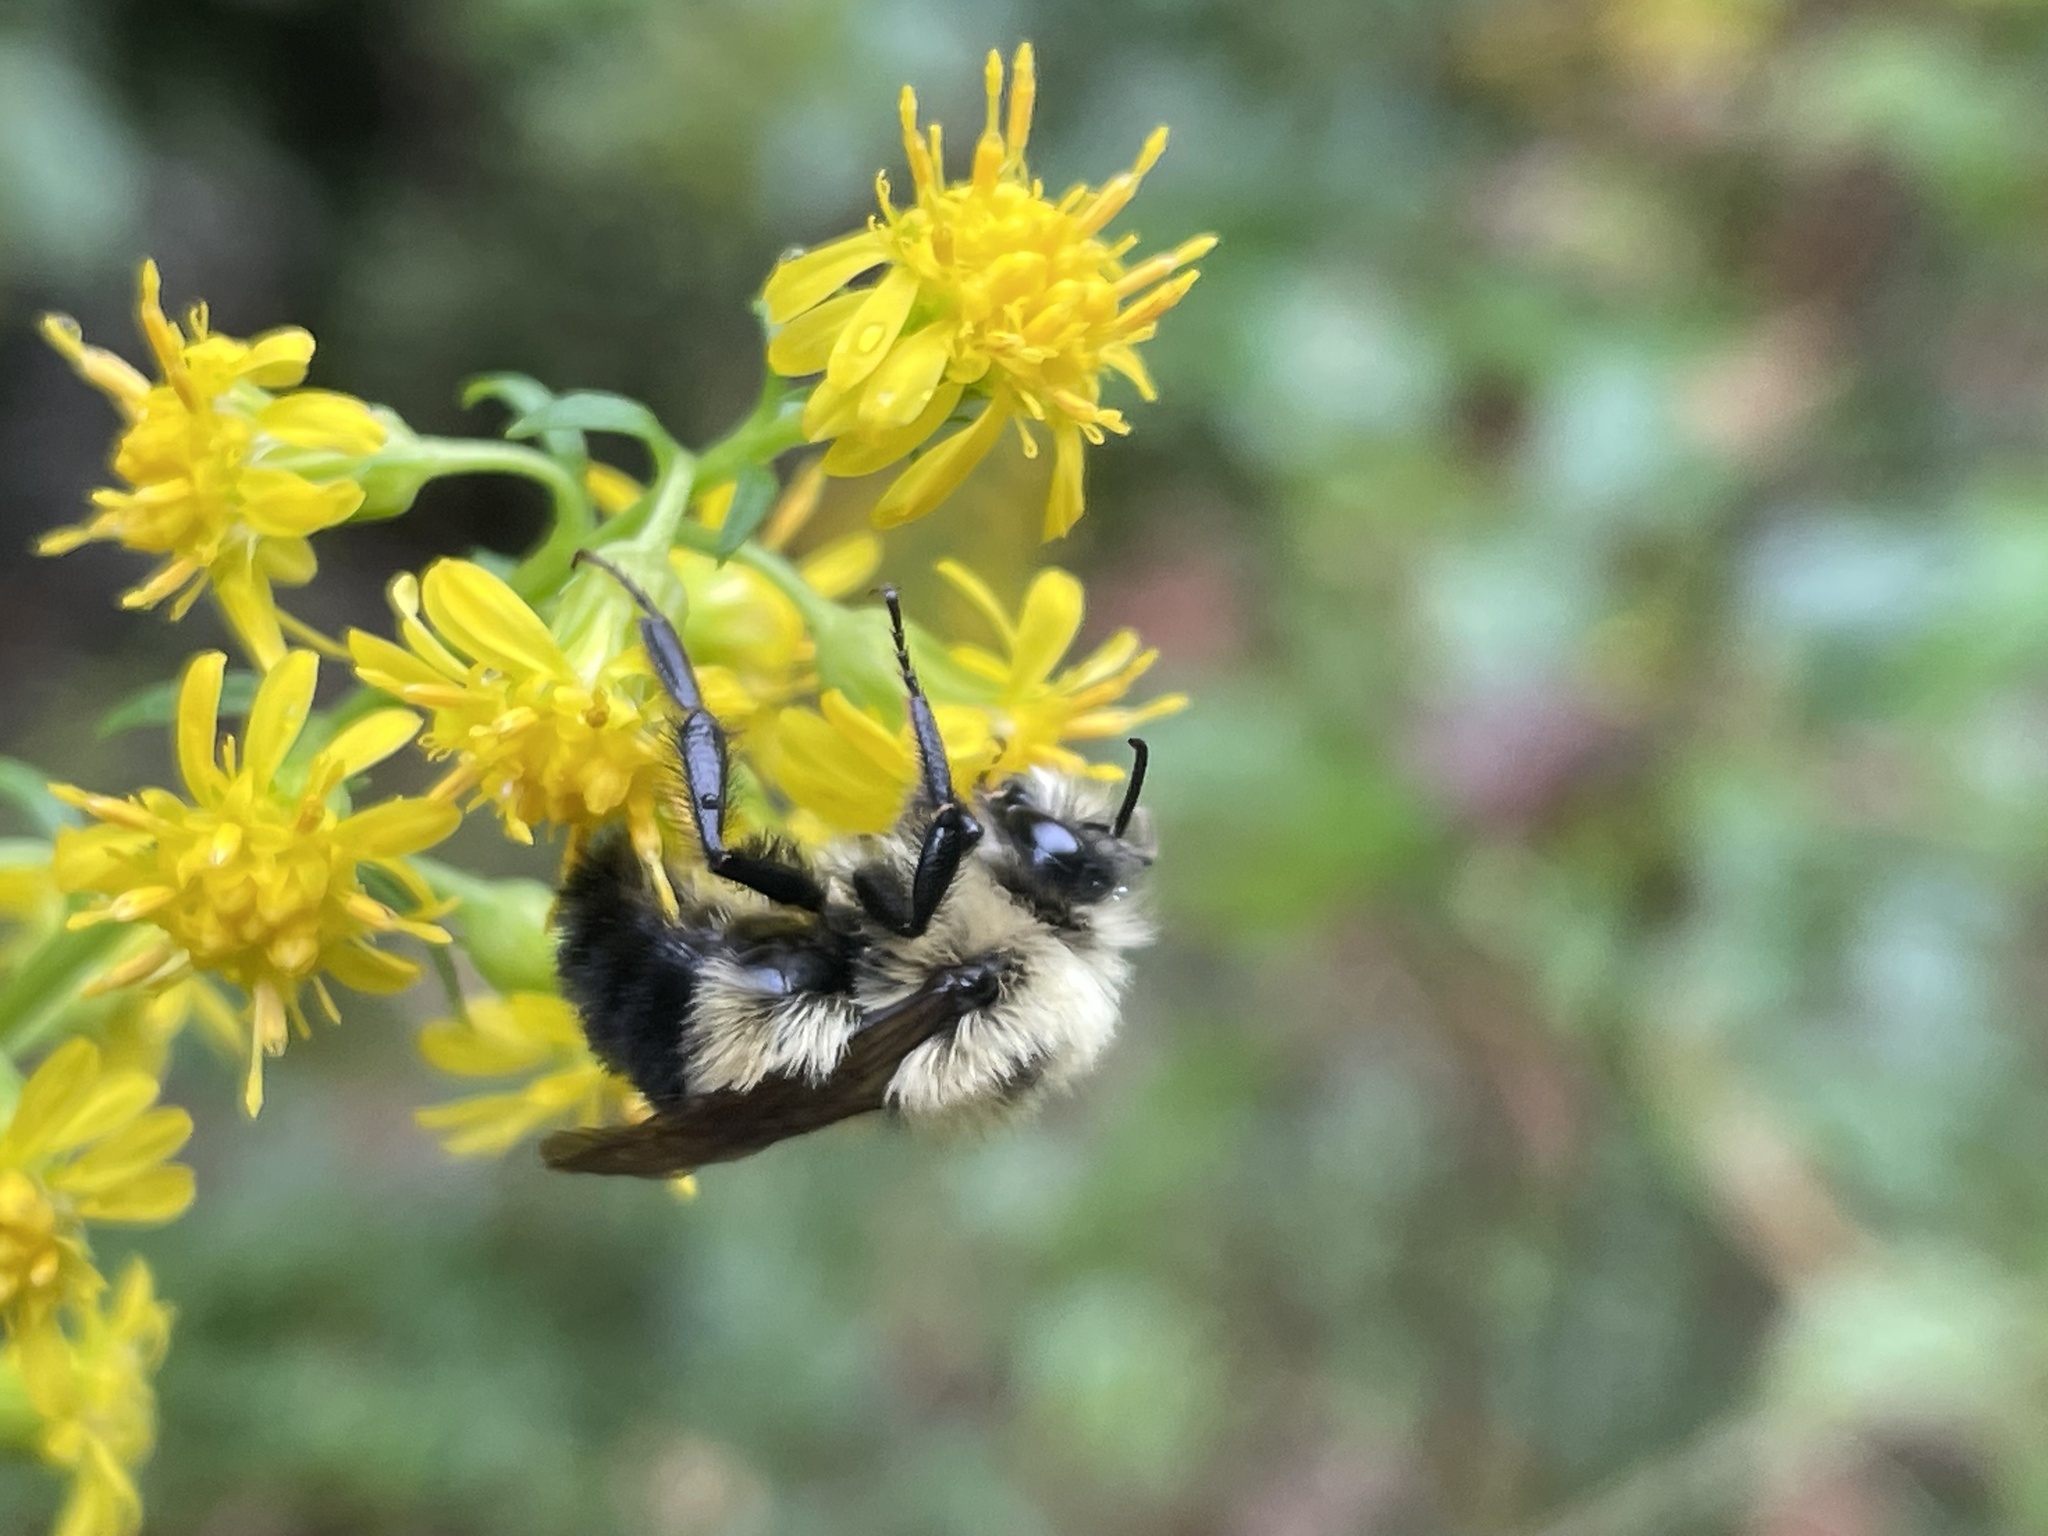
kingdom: Animalia
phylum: Arthropoda
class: Insecta
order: Hymenoptera
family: Apidae
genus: Pyrobombus
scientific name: Pyrobombus
